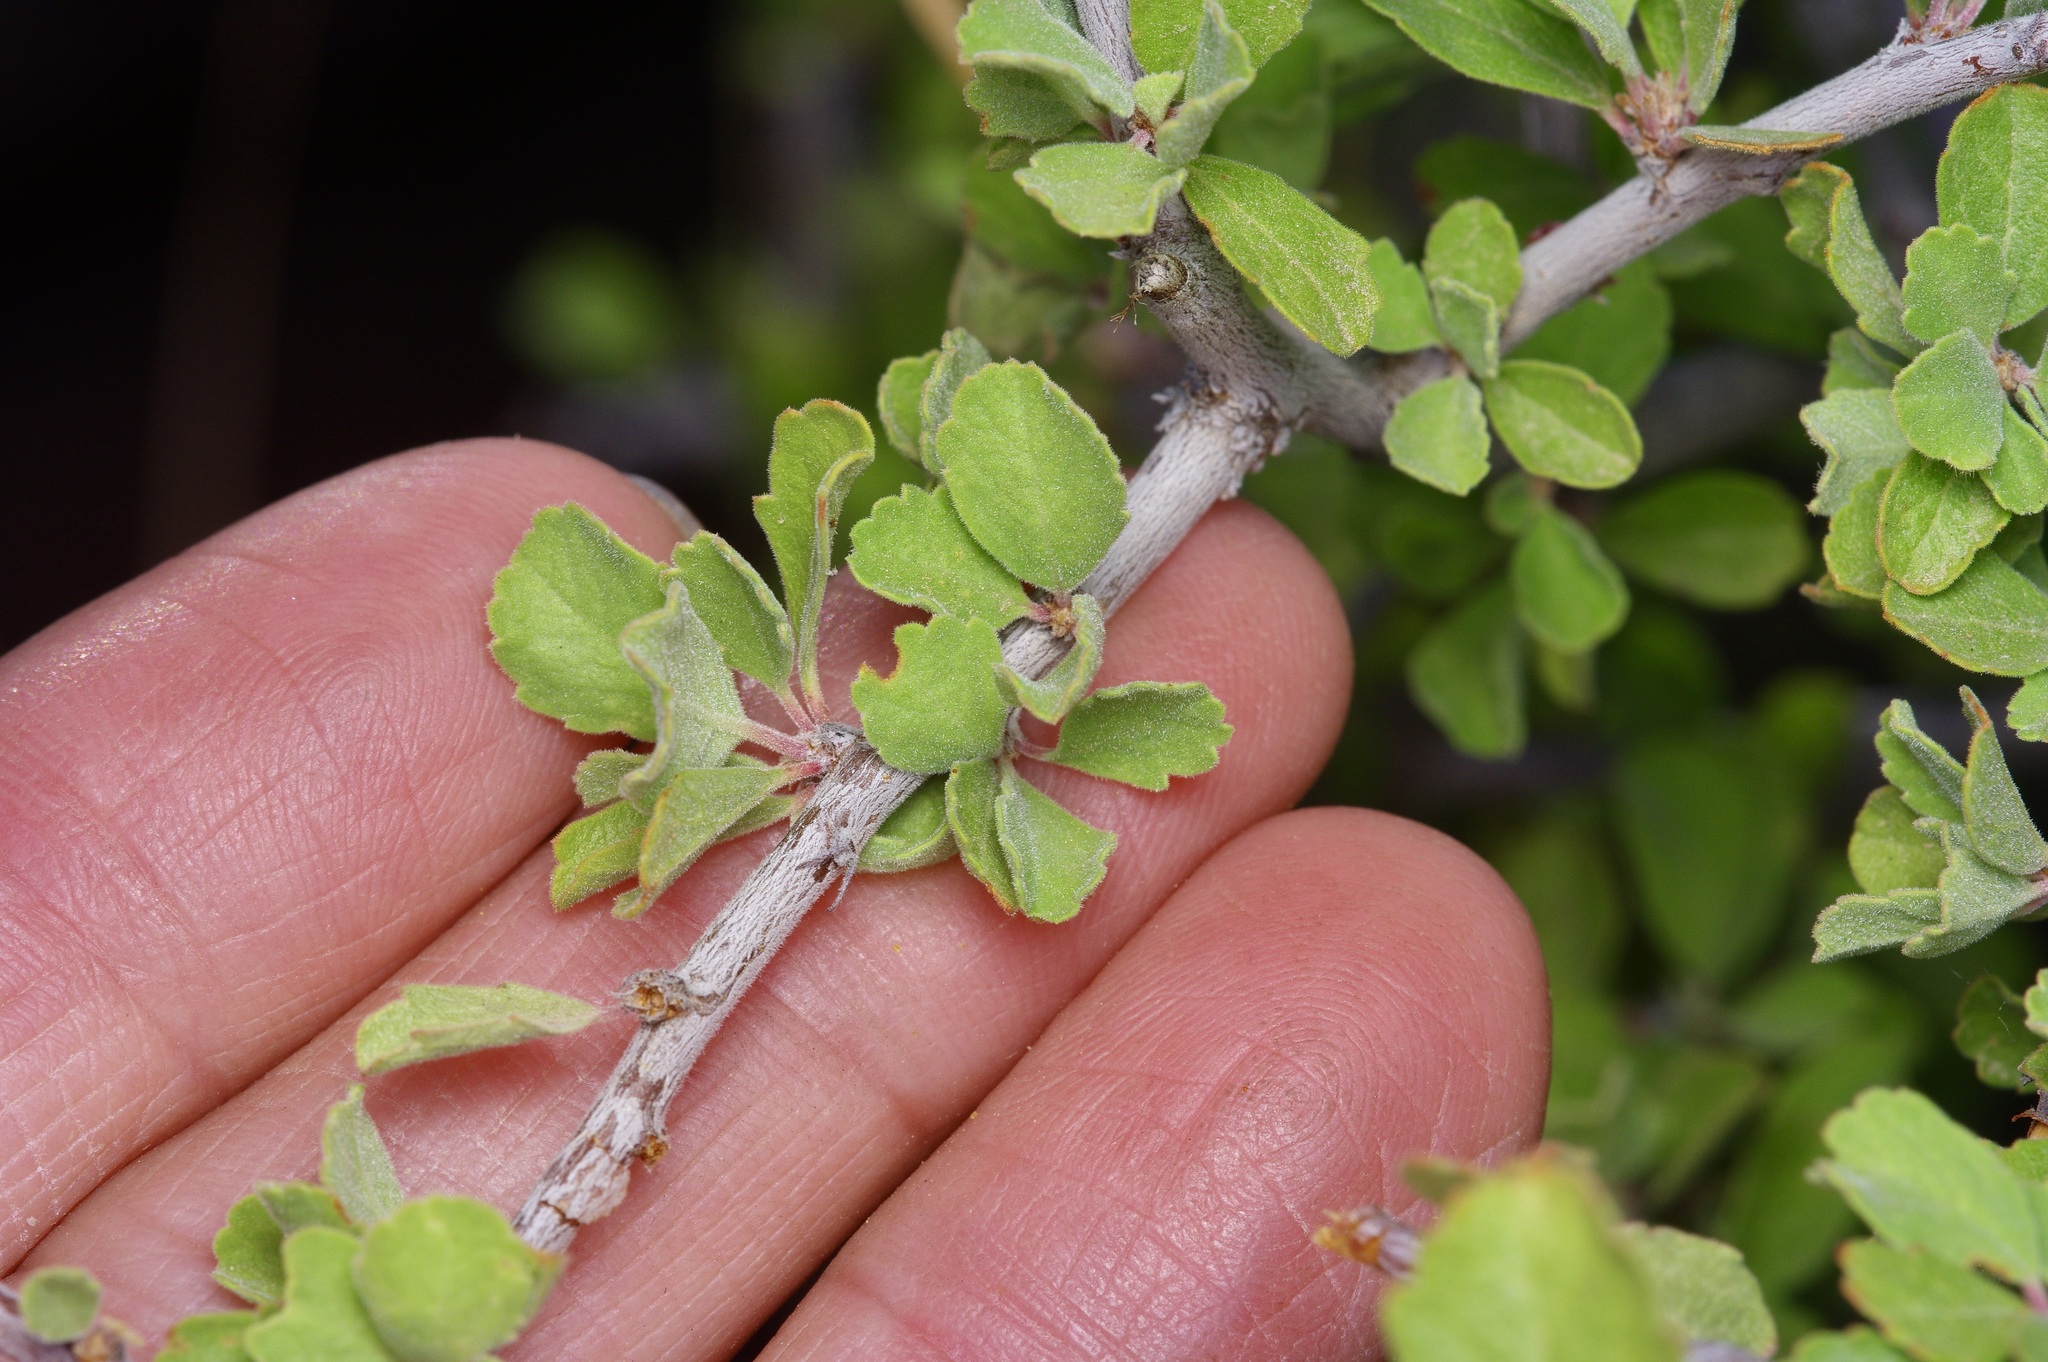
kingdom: Plantae
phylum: Tracheophyta
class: Magnoliopsida
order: Rosales
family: Rosaceae
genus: Prunus
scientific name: Prunus havardii
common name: Havard plum
